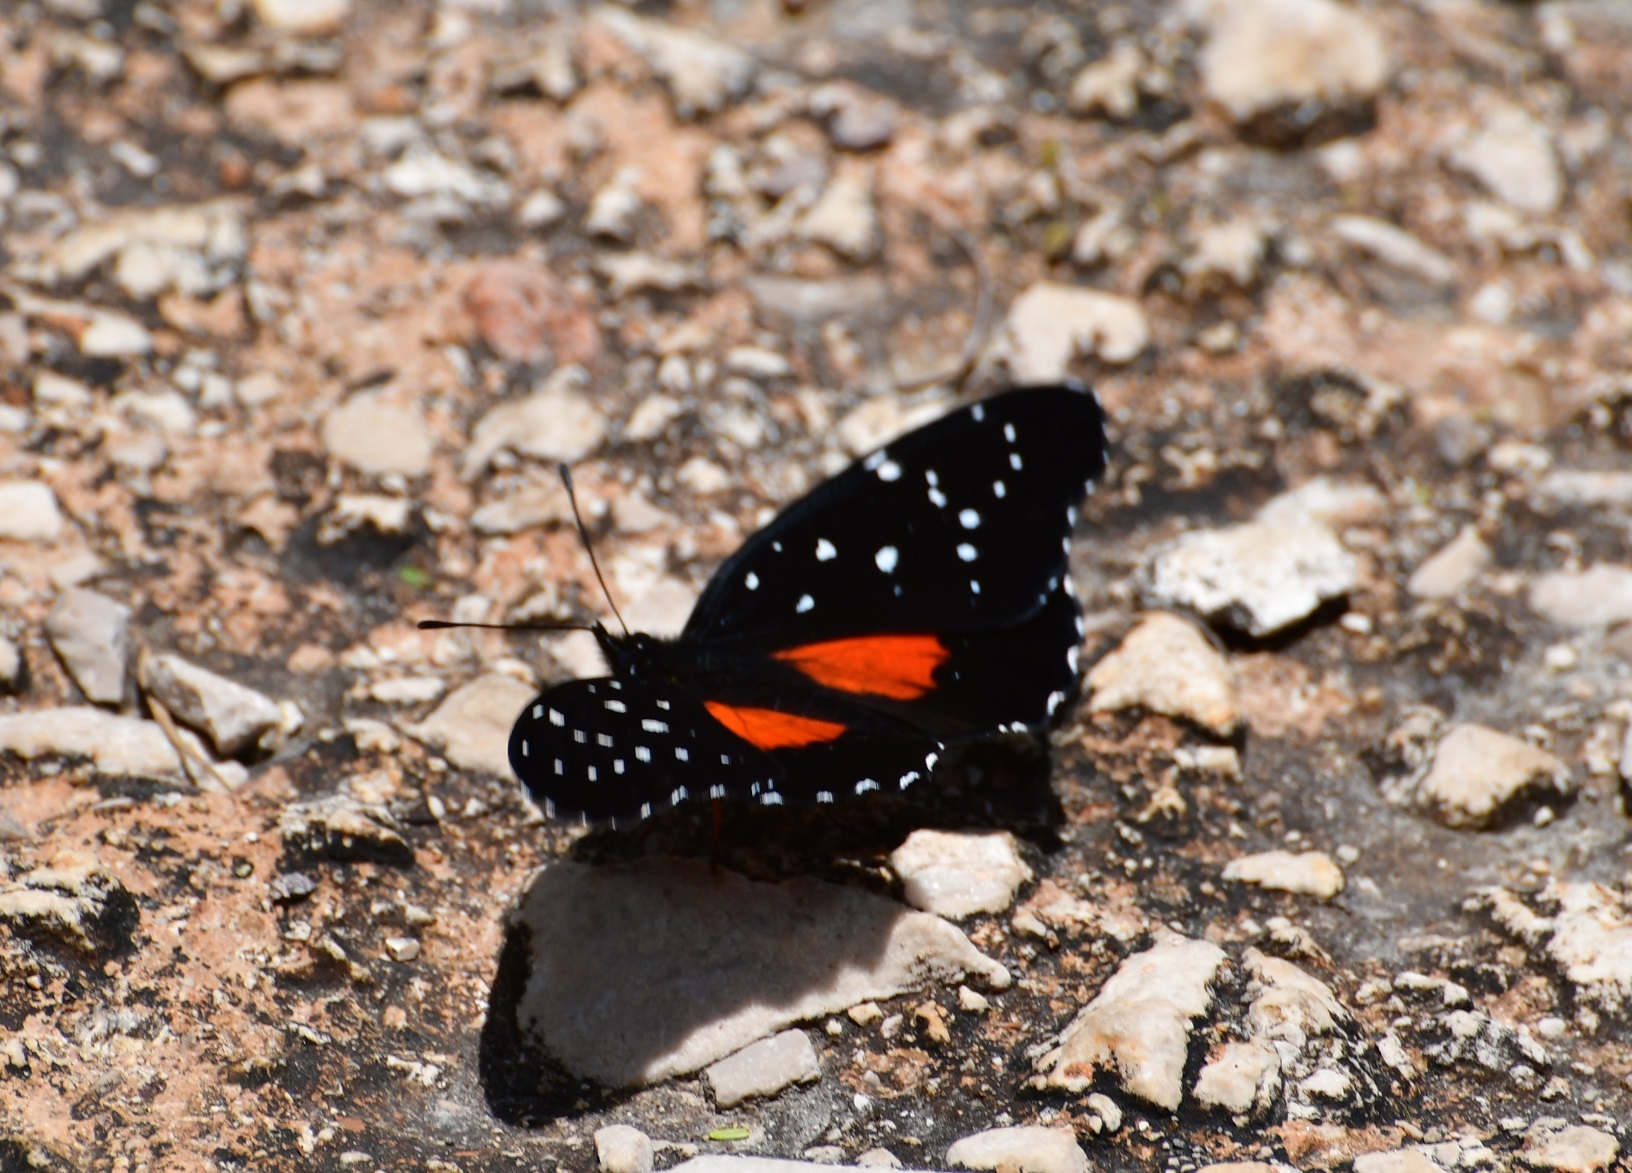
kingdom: Animalia
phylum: Arthropoda
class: Insecta
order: Lepidoptera
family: Nymphalidae
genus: Chlosyne
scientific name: Chlosyne janais
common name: Crimson patch
